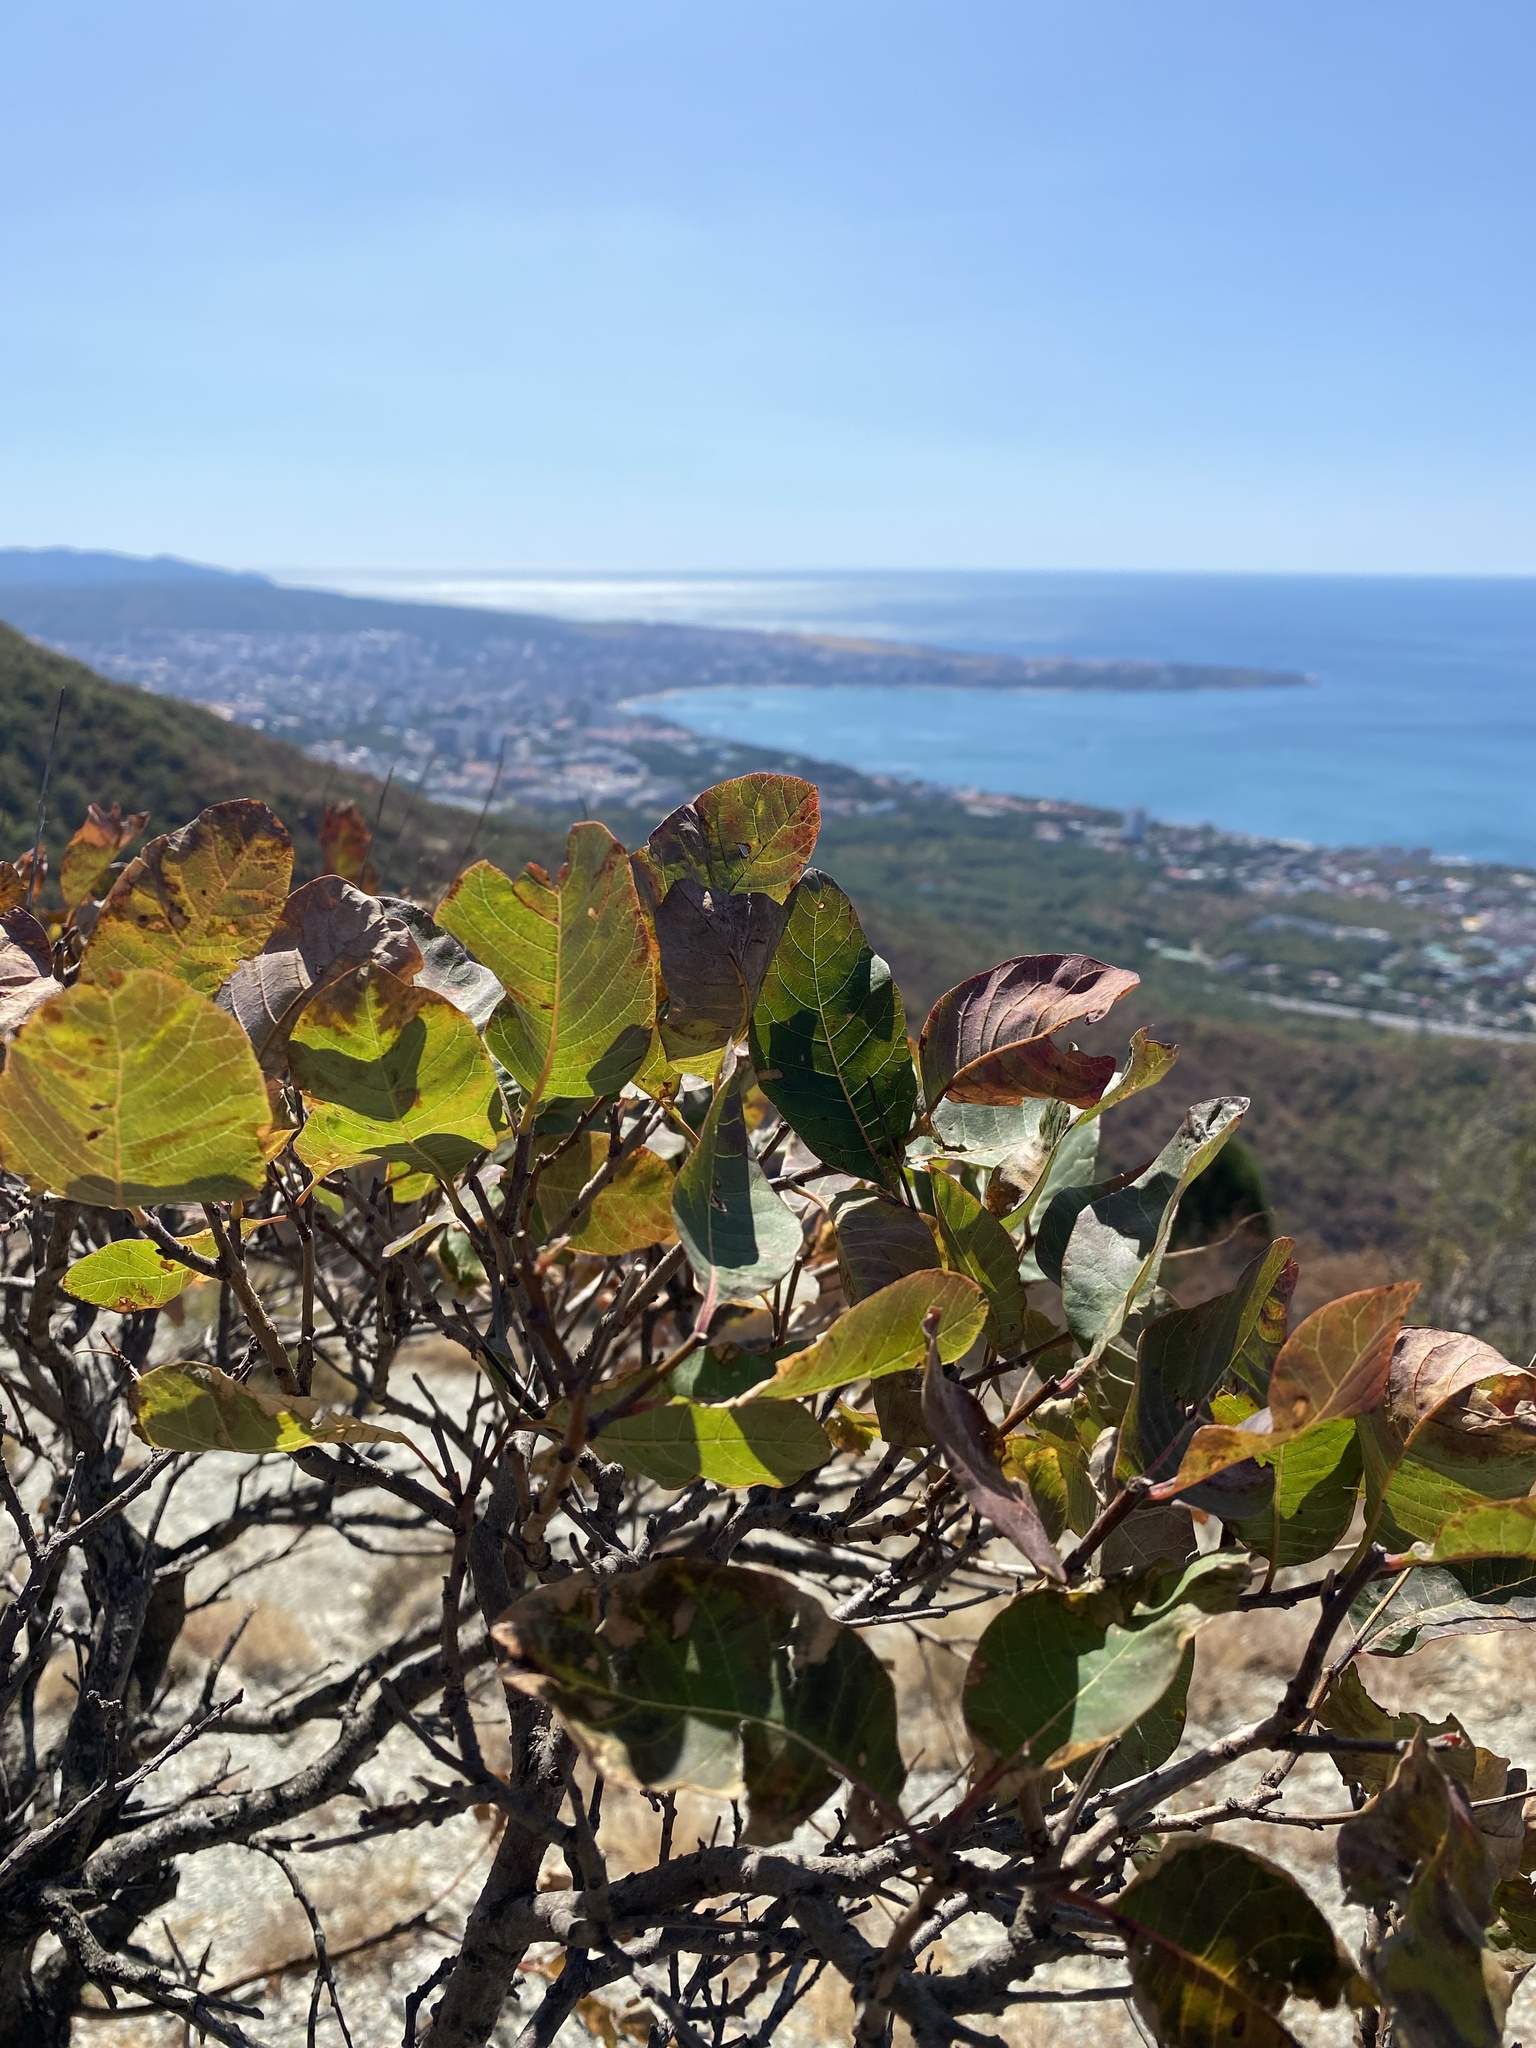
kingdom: Plantae
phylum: Tracheophyta
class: Magnoliopsida
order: Sapindales
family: Anacardiaceae
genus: Cotinus
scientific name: Cotinus coggygria
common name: Smoke-tree
